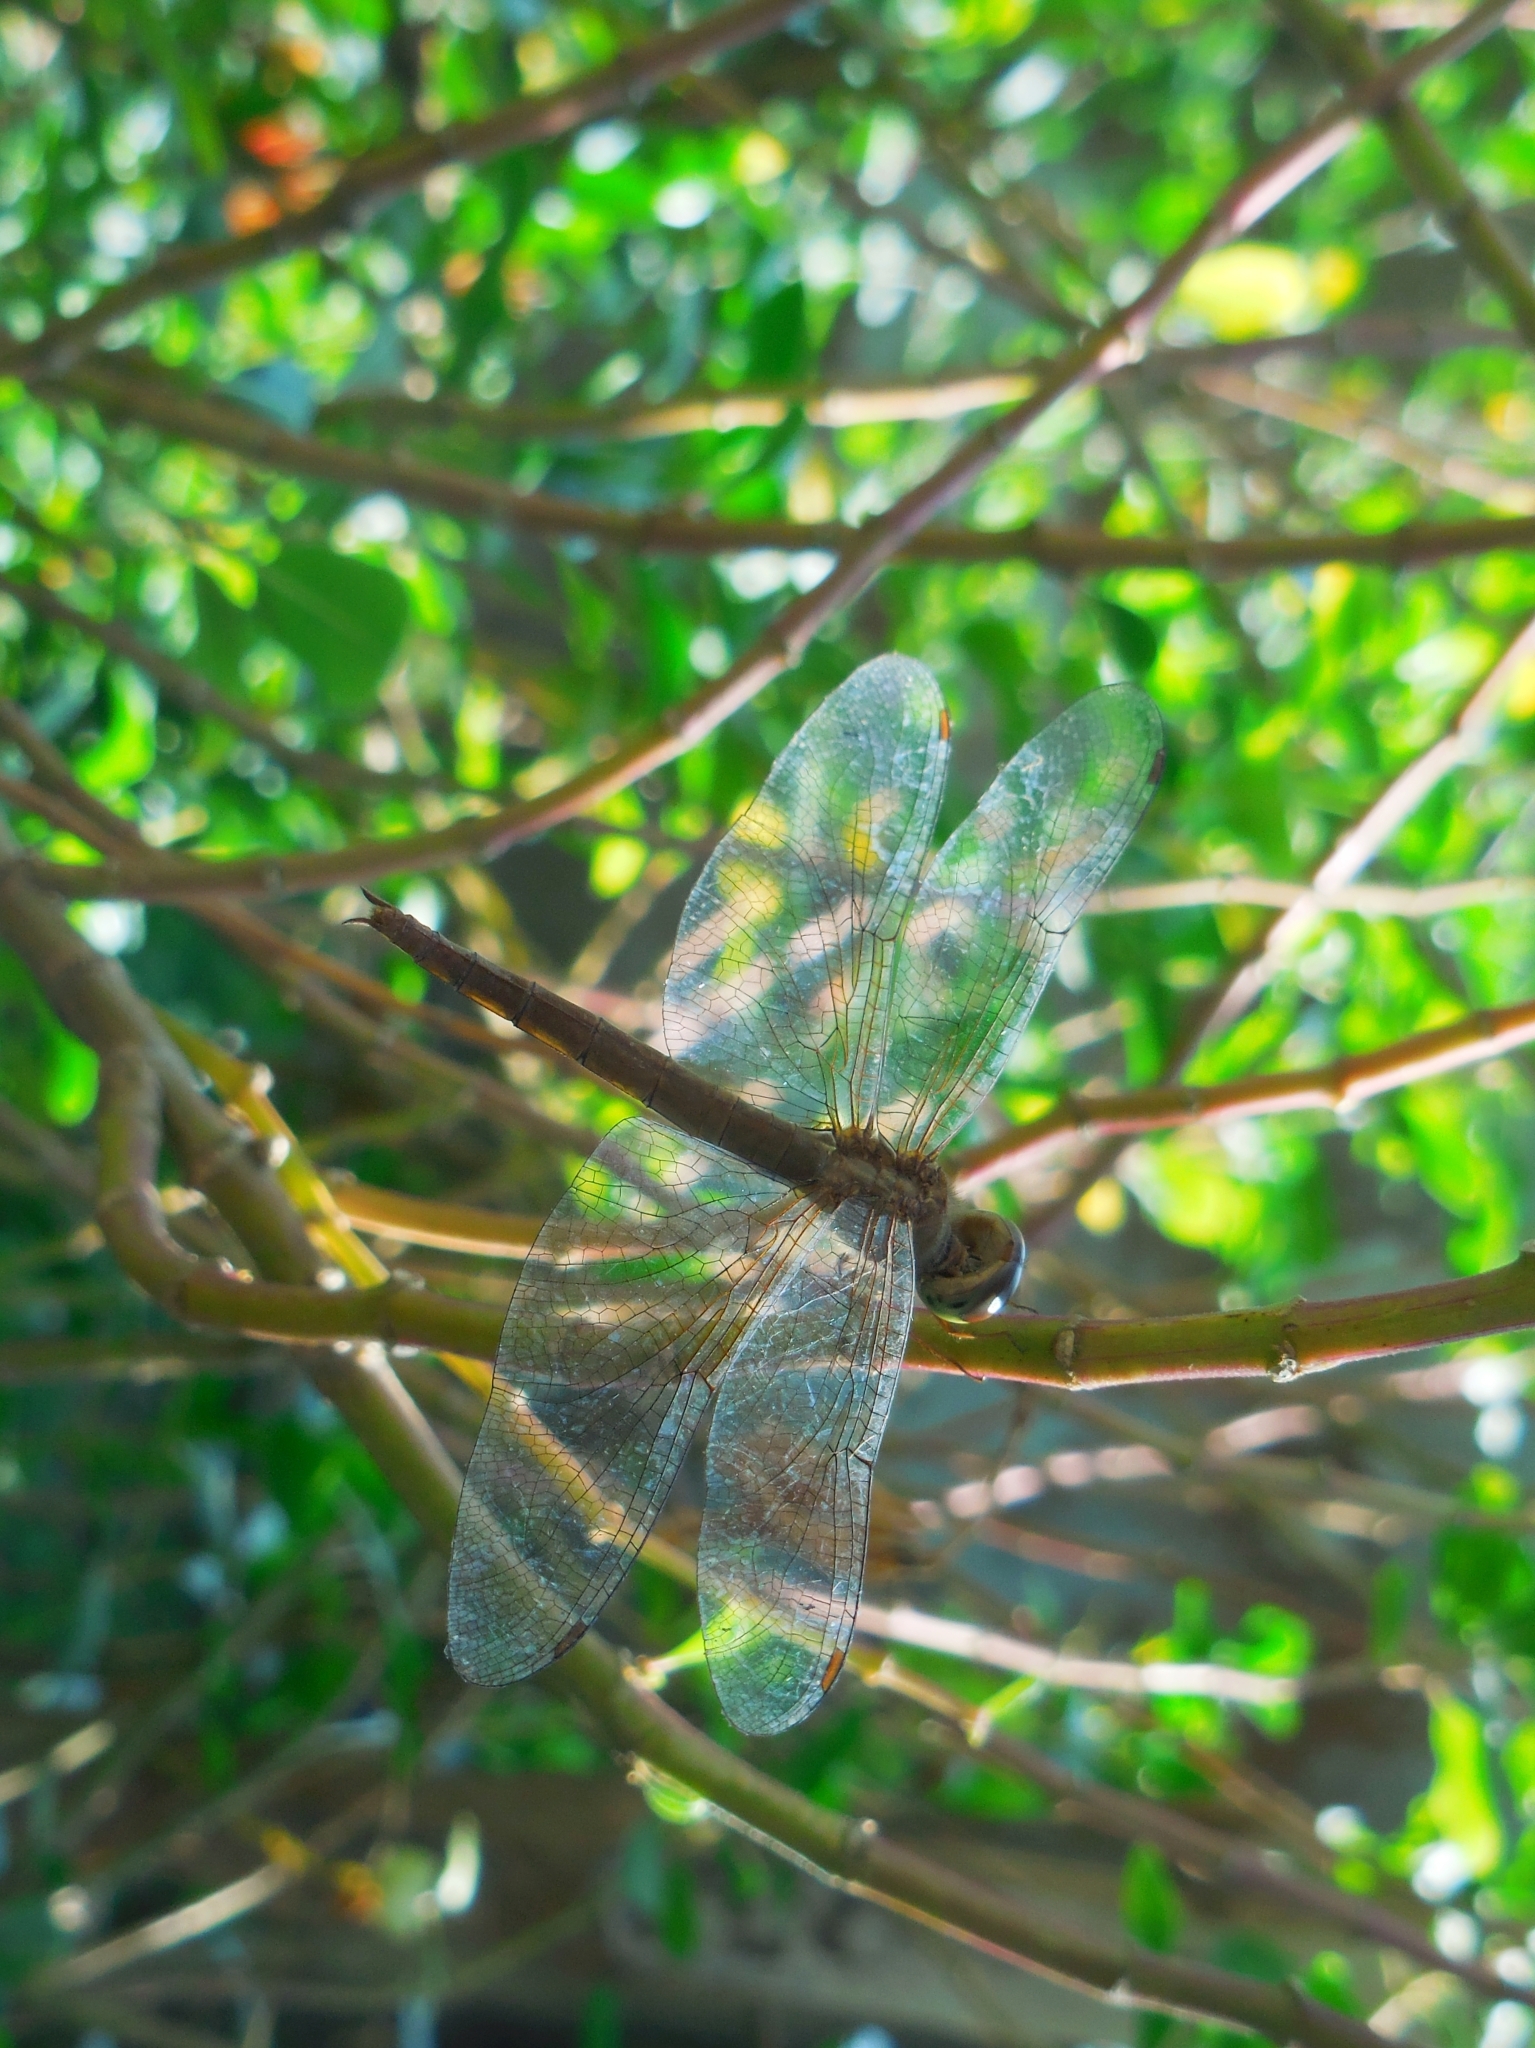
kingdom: Animalia
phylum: Arthropoda
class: Insecta
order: Odonata
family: Libellulidae
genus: Tholymis
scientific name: Tholymis tillarga
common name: Coral-tailed cloud wing
